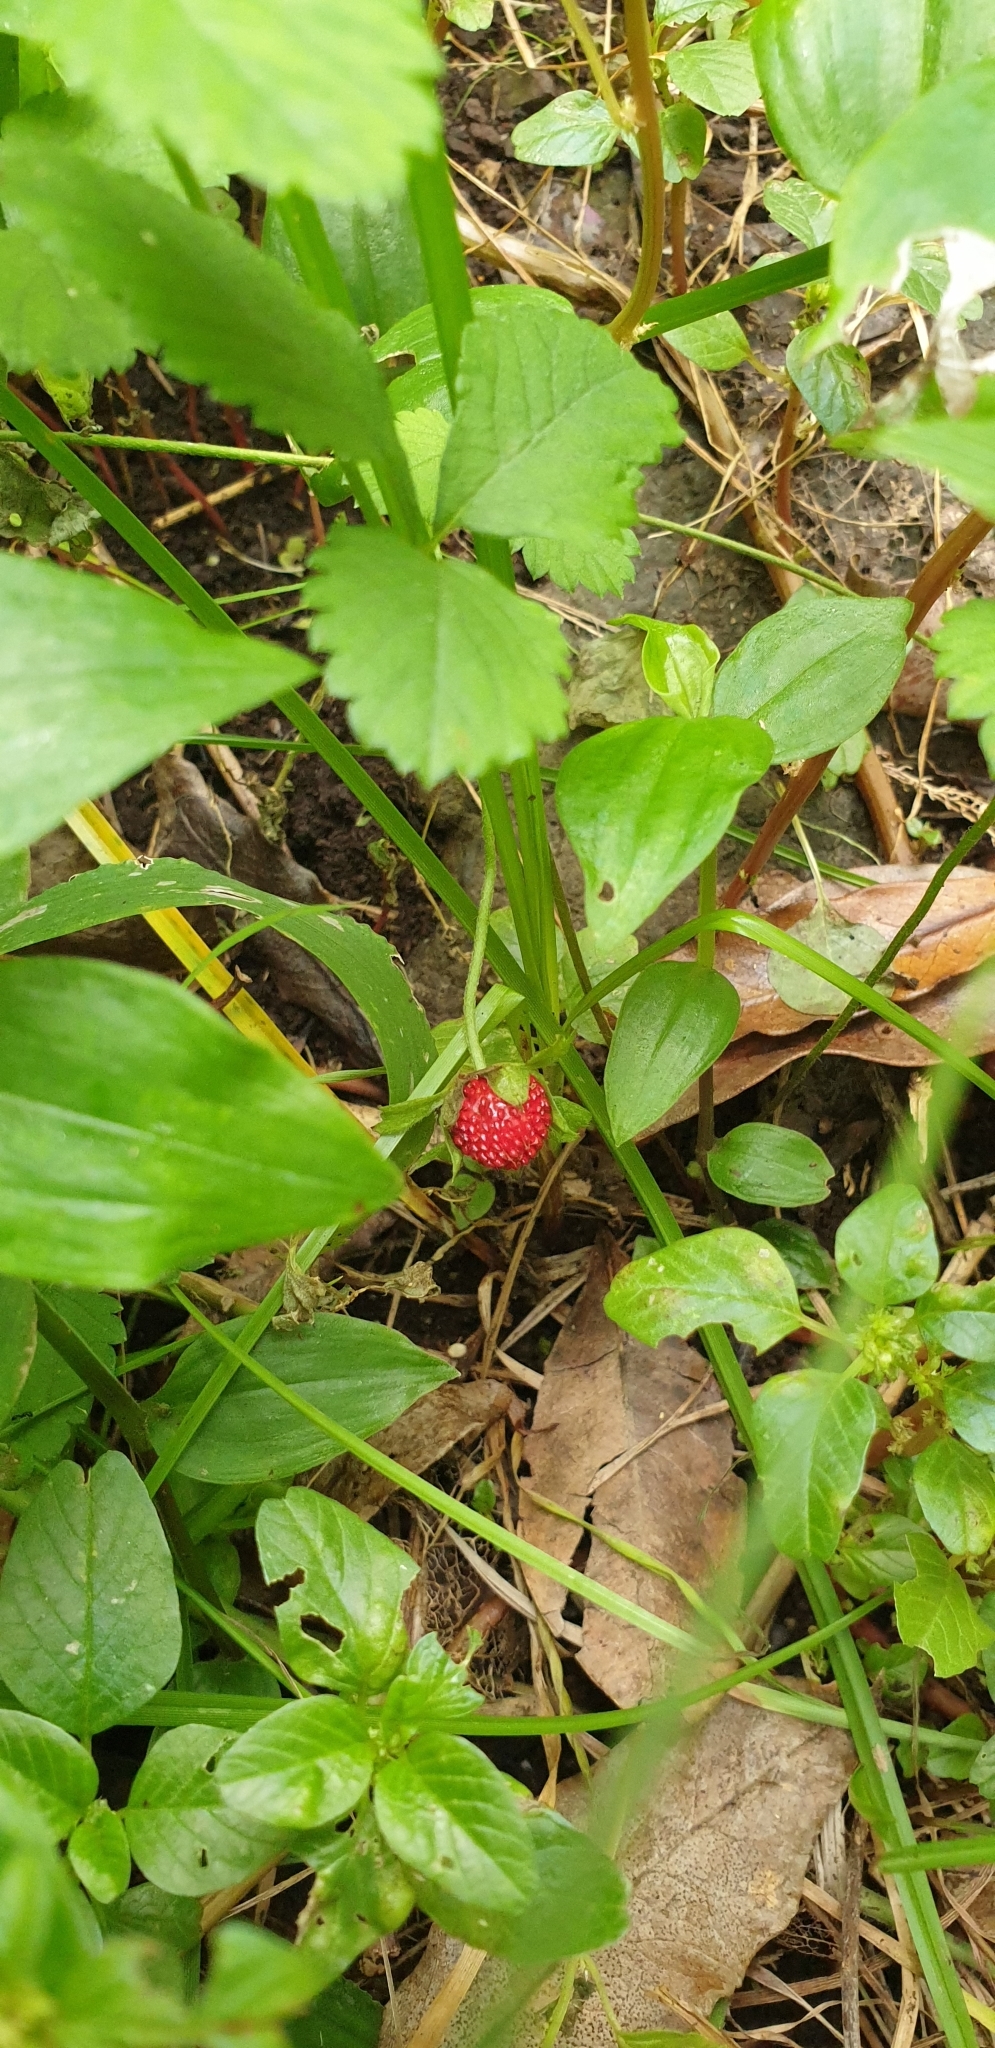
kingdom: Plantae
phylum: Tracheophyta
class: Magnoliopsida
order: Rosales
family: Rosaceae
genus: Potentilla
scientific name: Potentilla indica
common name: Yellow-flowered strawberry
